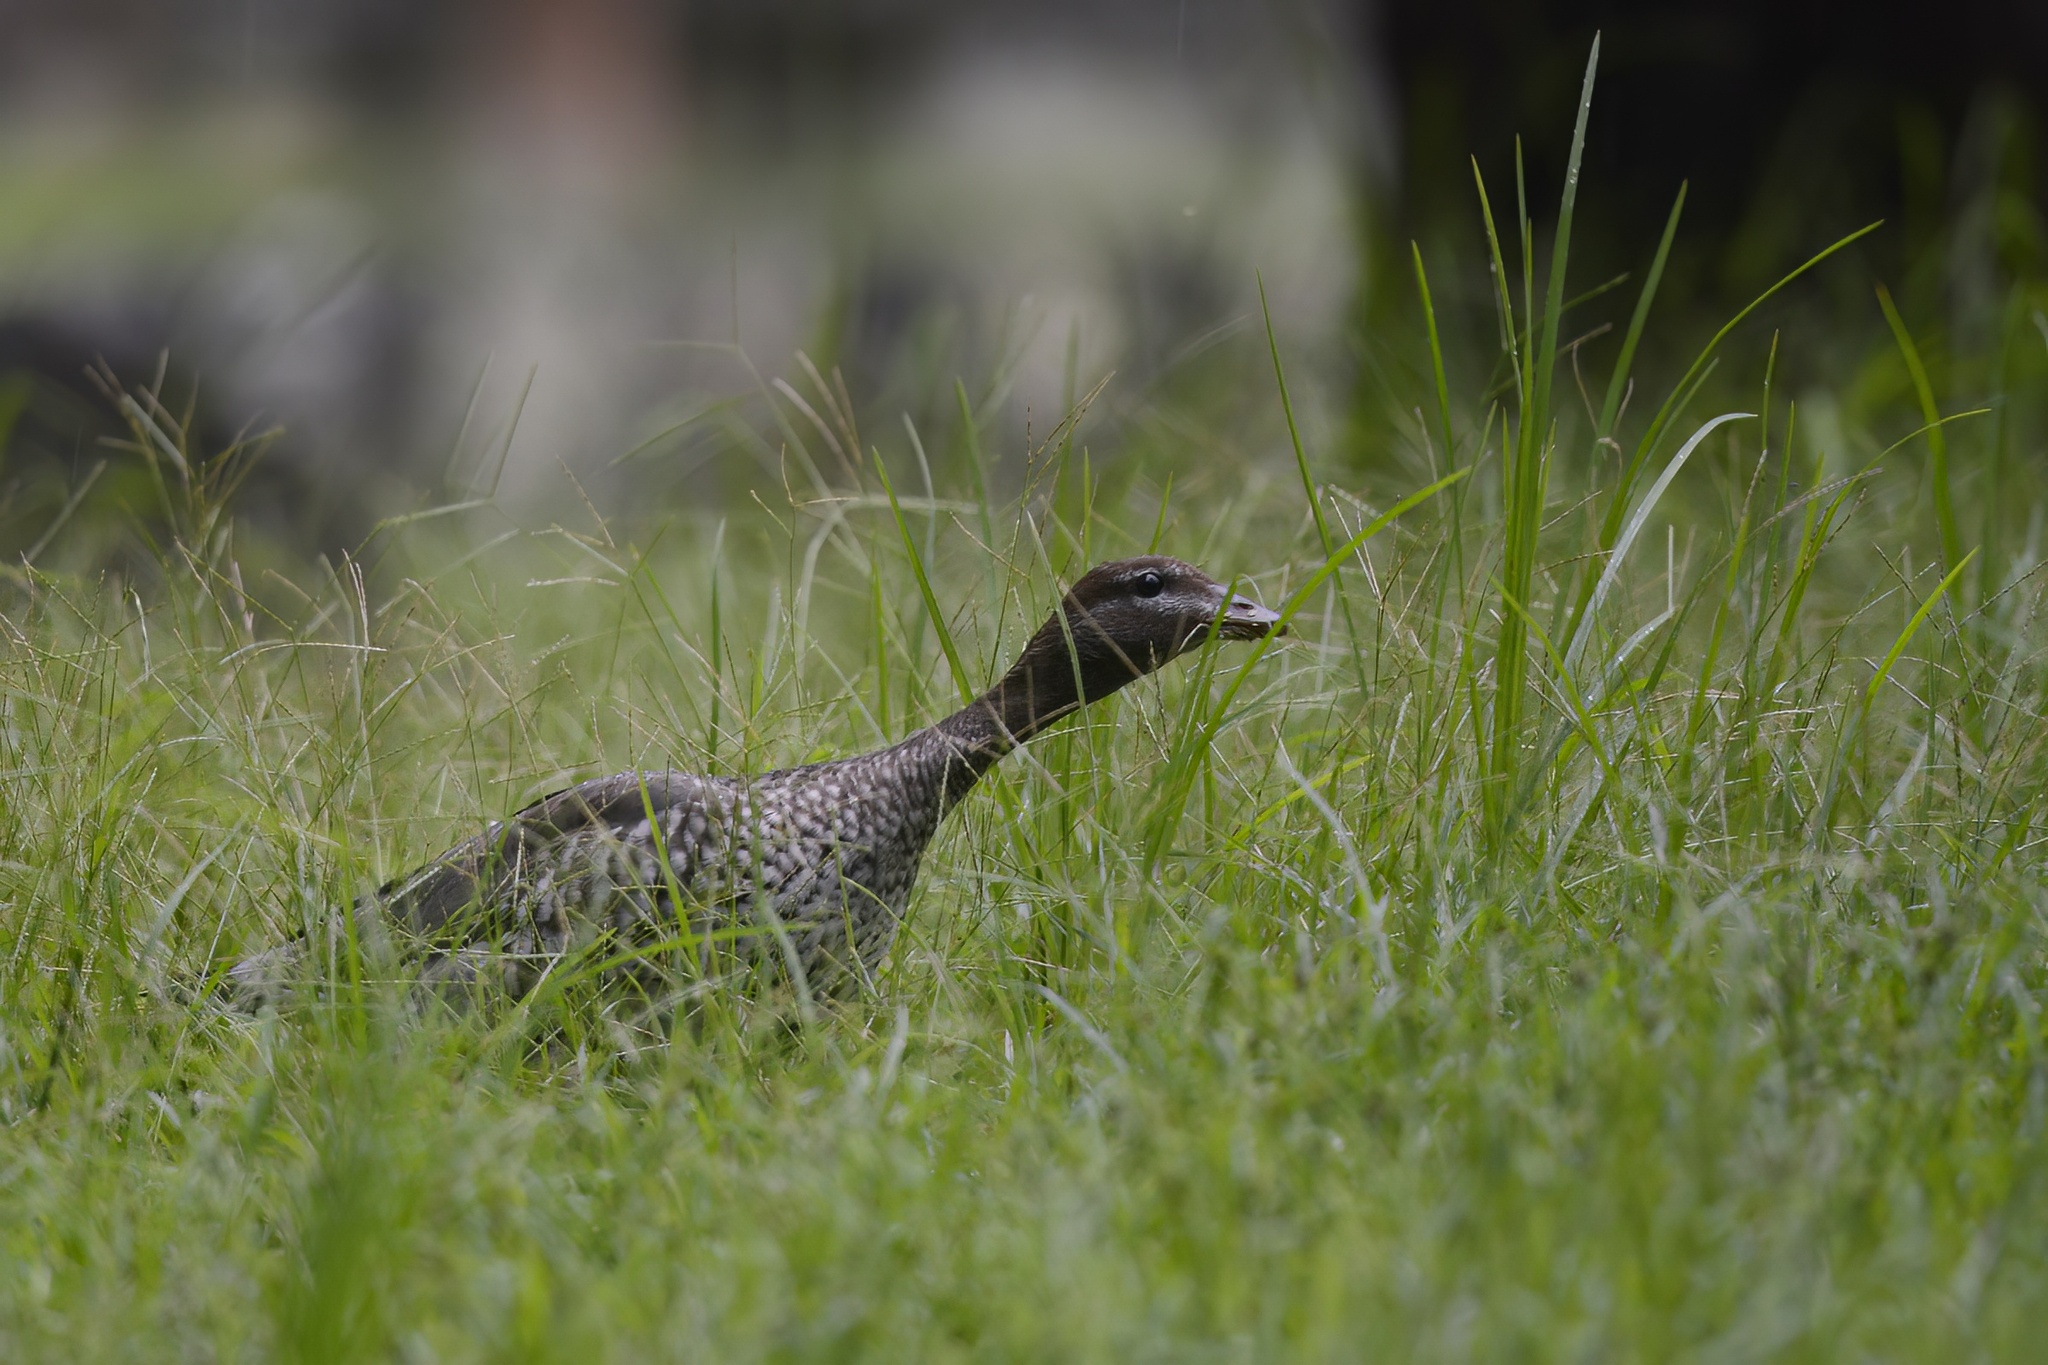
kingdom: Animalia
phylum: Chordata
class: Aves
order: Anseriformes
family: Anatidae
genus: Chenonetta
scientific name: Chenonetta jubata
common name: Maned duck
